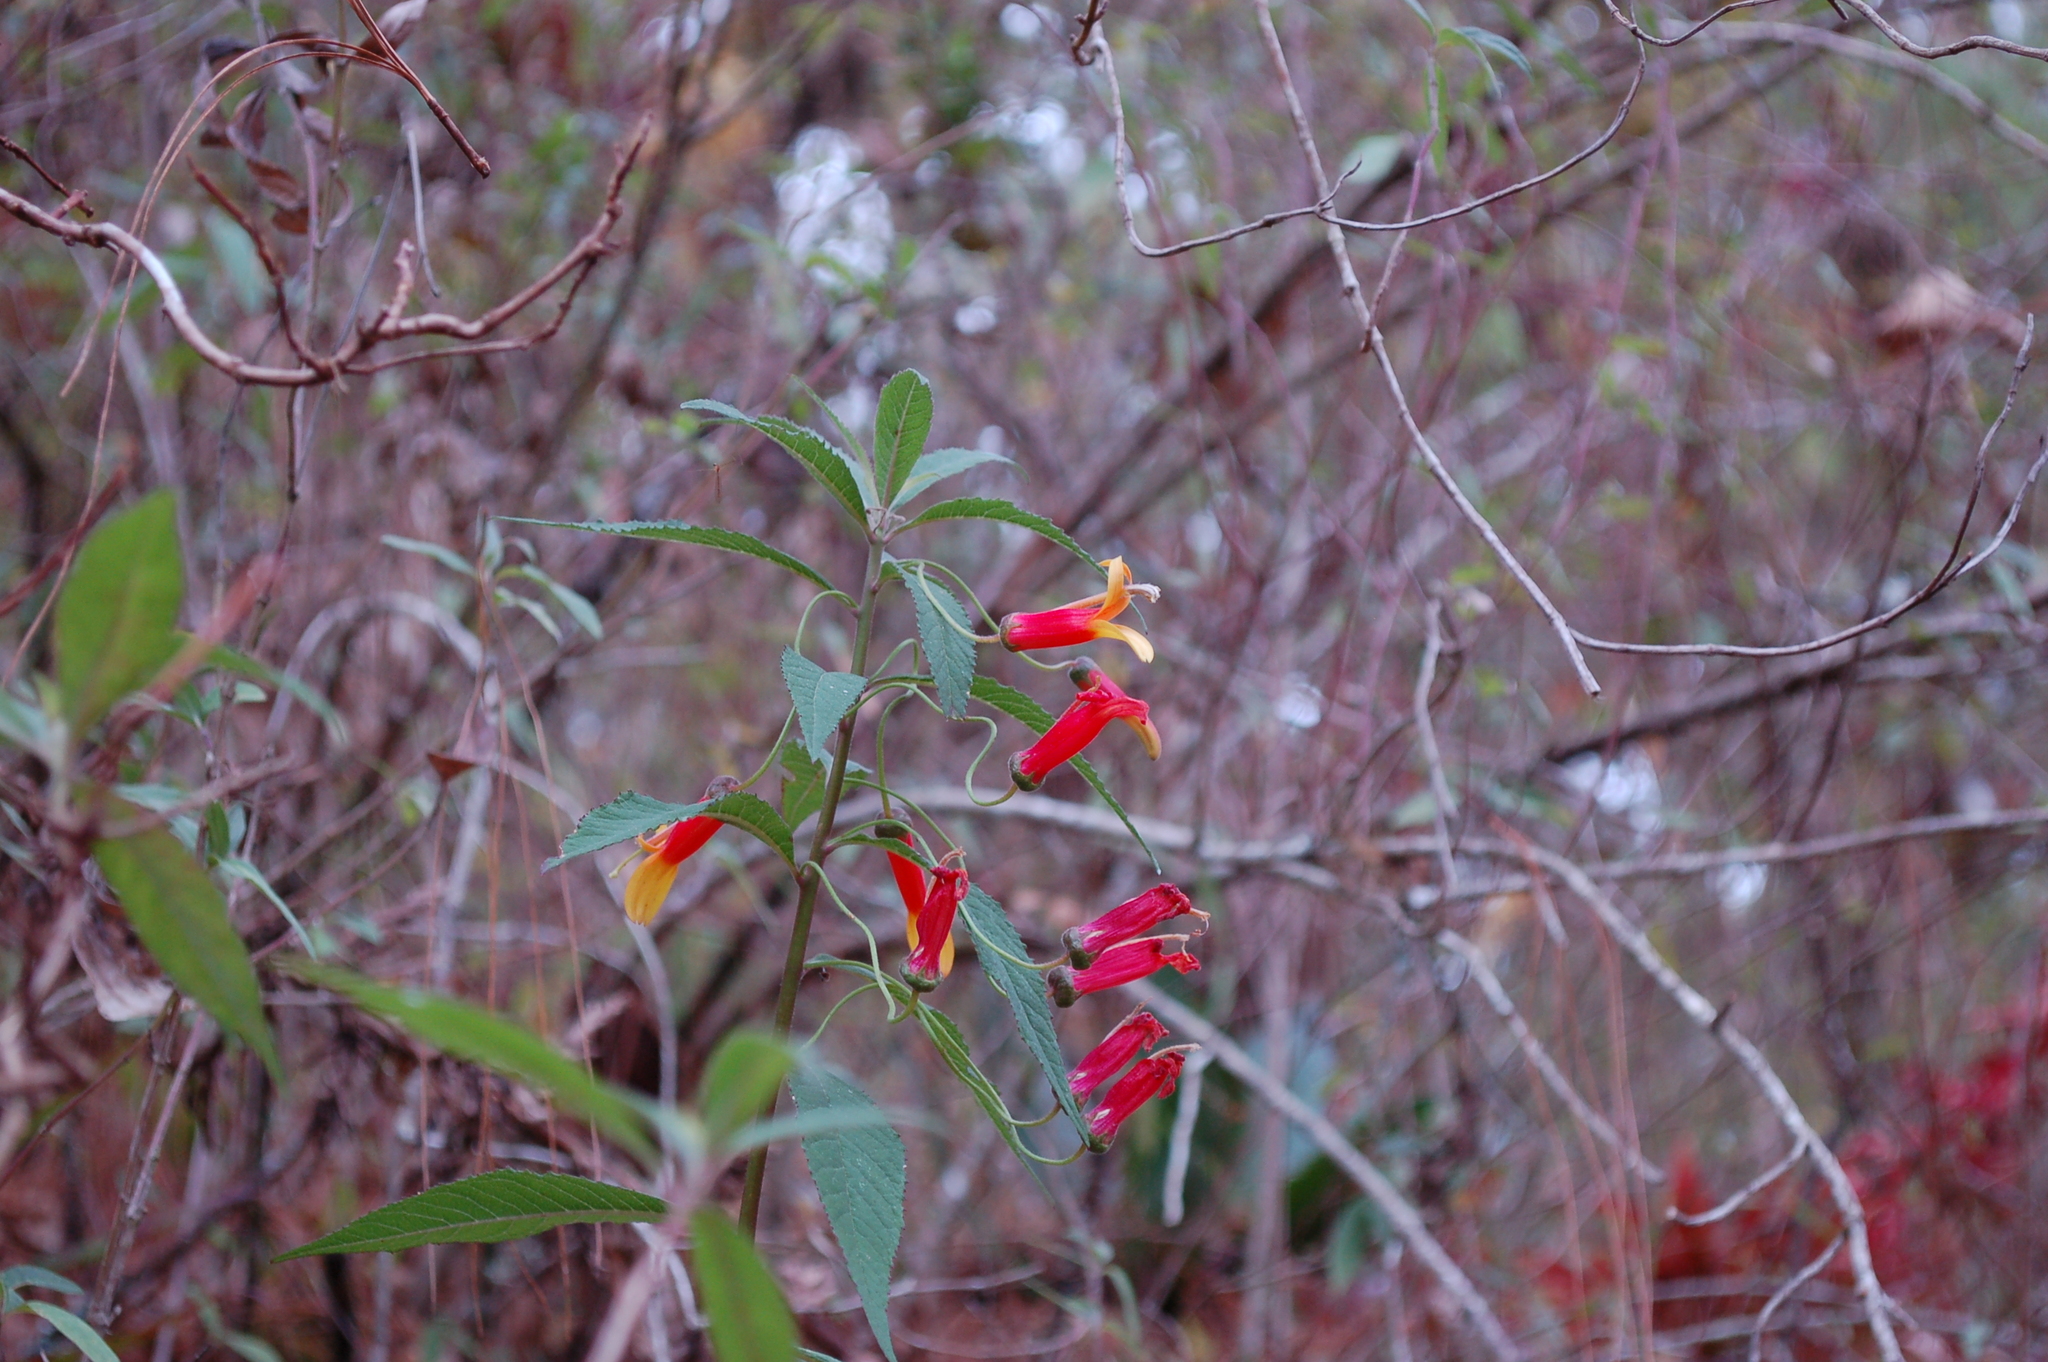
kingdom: Plantae
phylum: Tracheophyta
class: Magnoliopsida
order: Asterales
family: Campanulaceae
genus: Lobelia
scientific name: Lobelia laxiflora
